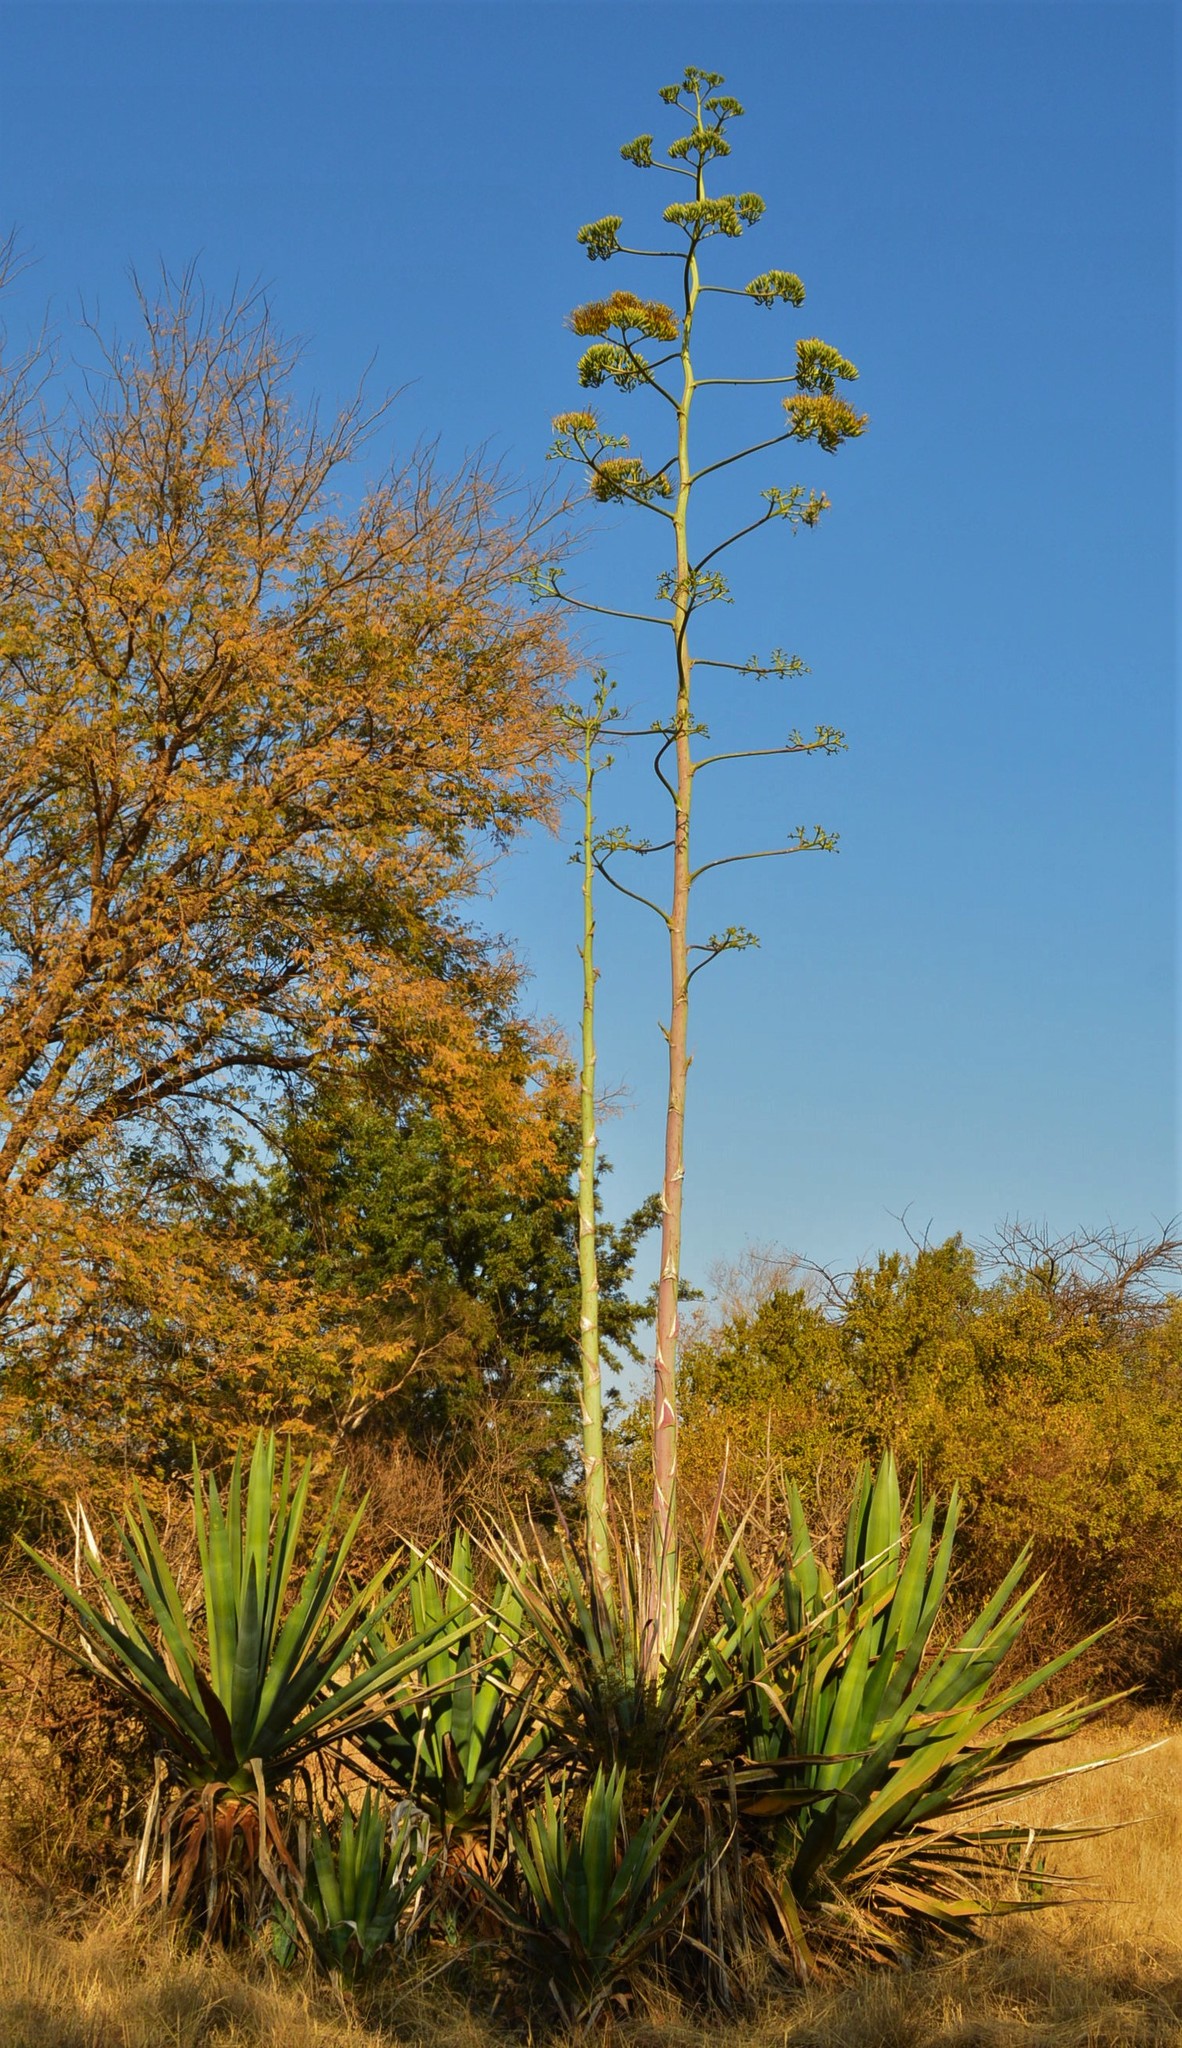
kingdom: Plantae
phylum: Tracheophyta
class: Liliopsida
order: Asparagales
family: Asparagaceae
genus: Agave
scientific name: Agave sisalana
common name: Sisal hemp
